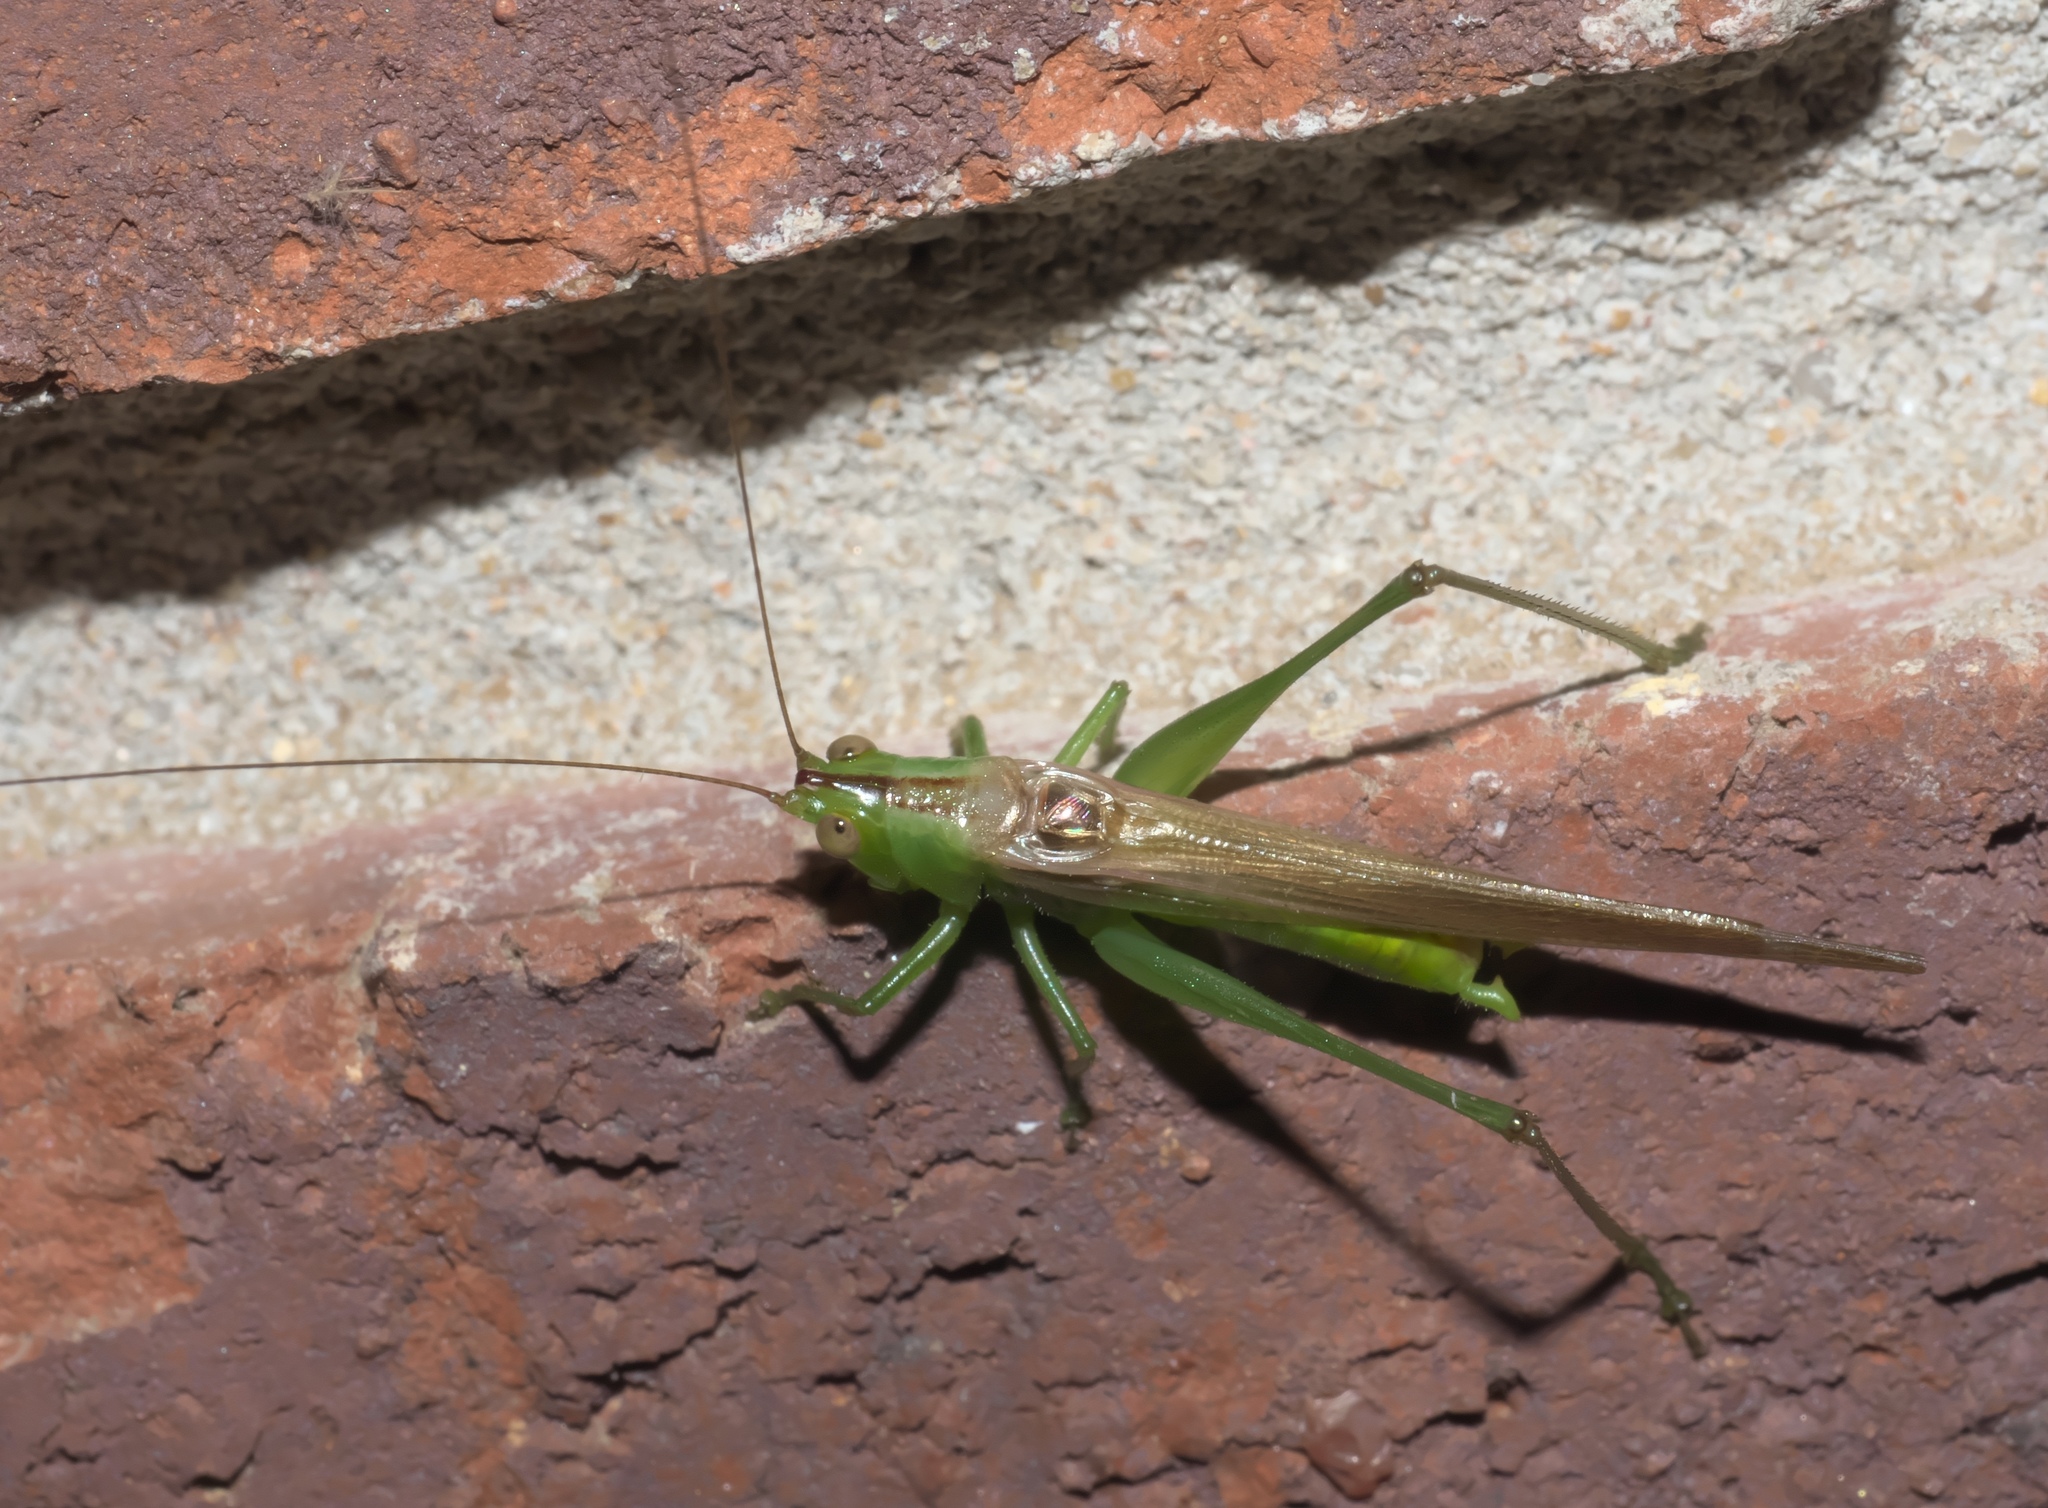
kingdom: Animalia
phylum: Arthropoda
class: Insecta
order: Orthoptera
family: Tettigoniidae
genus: Conocephalus
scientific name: Conocephalus fasciatus
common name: Slender meadow katydid
